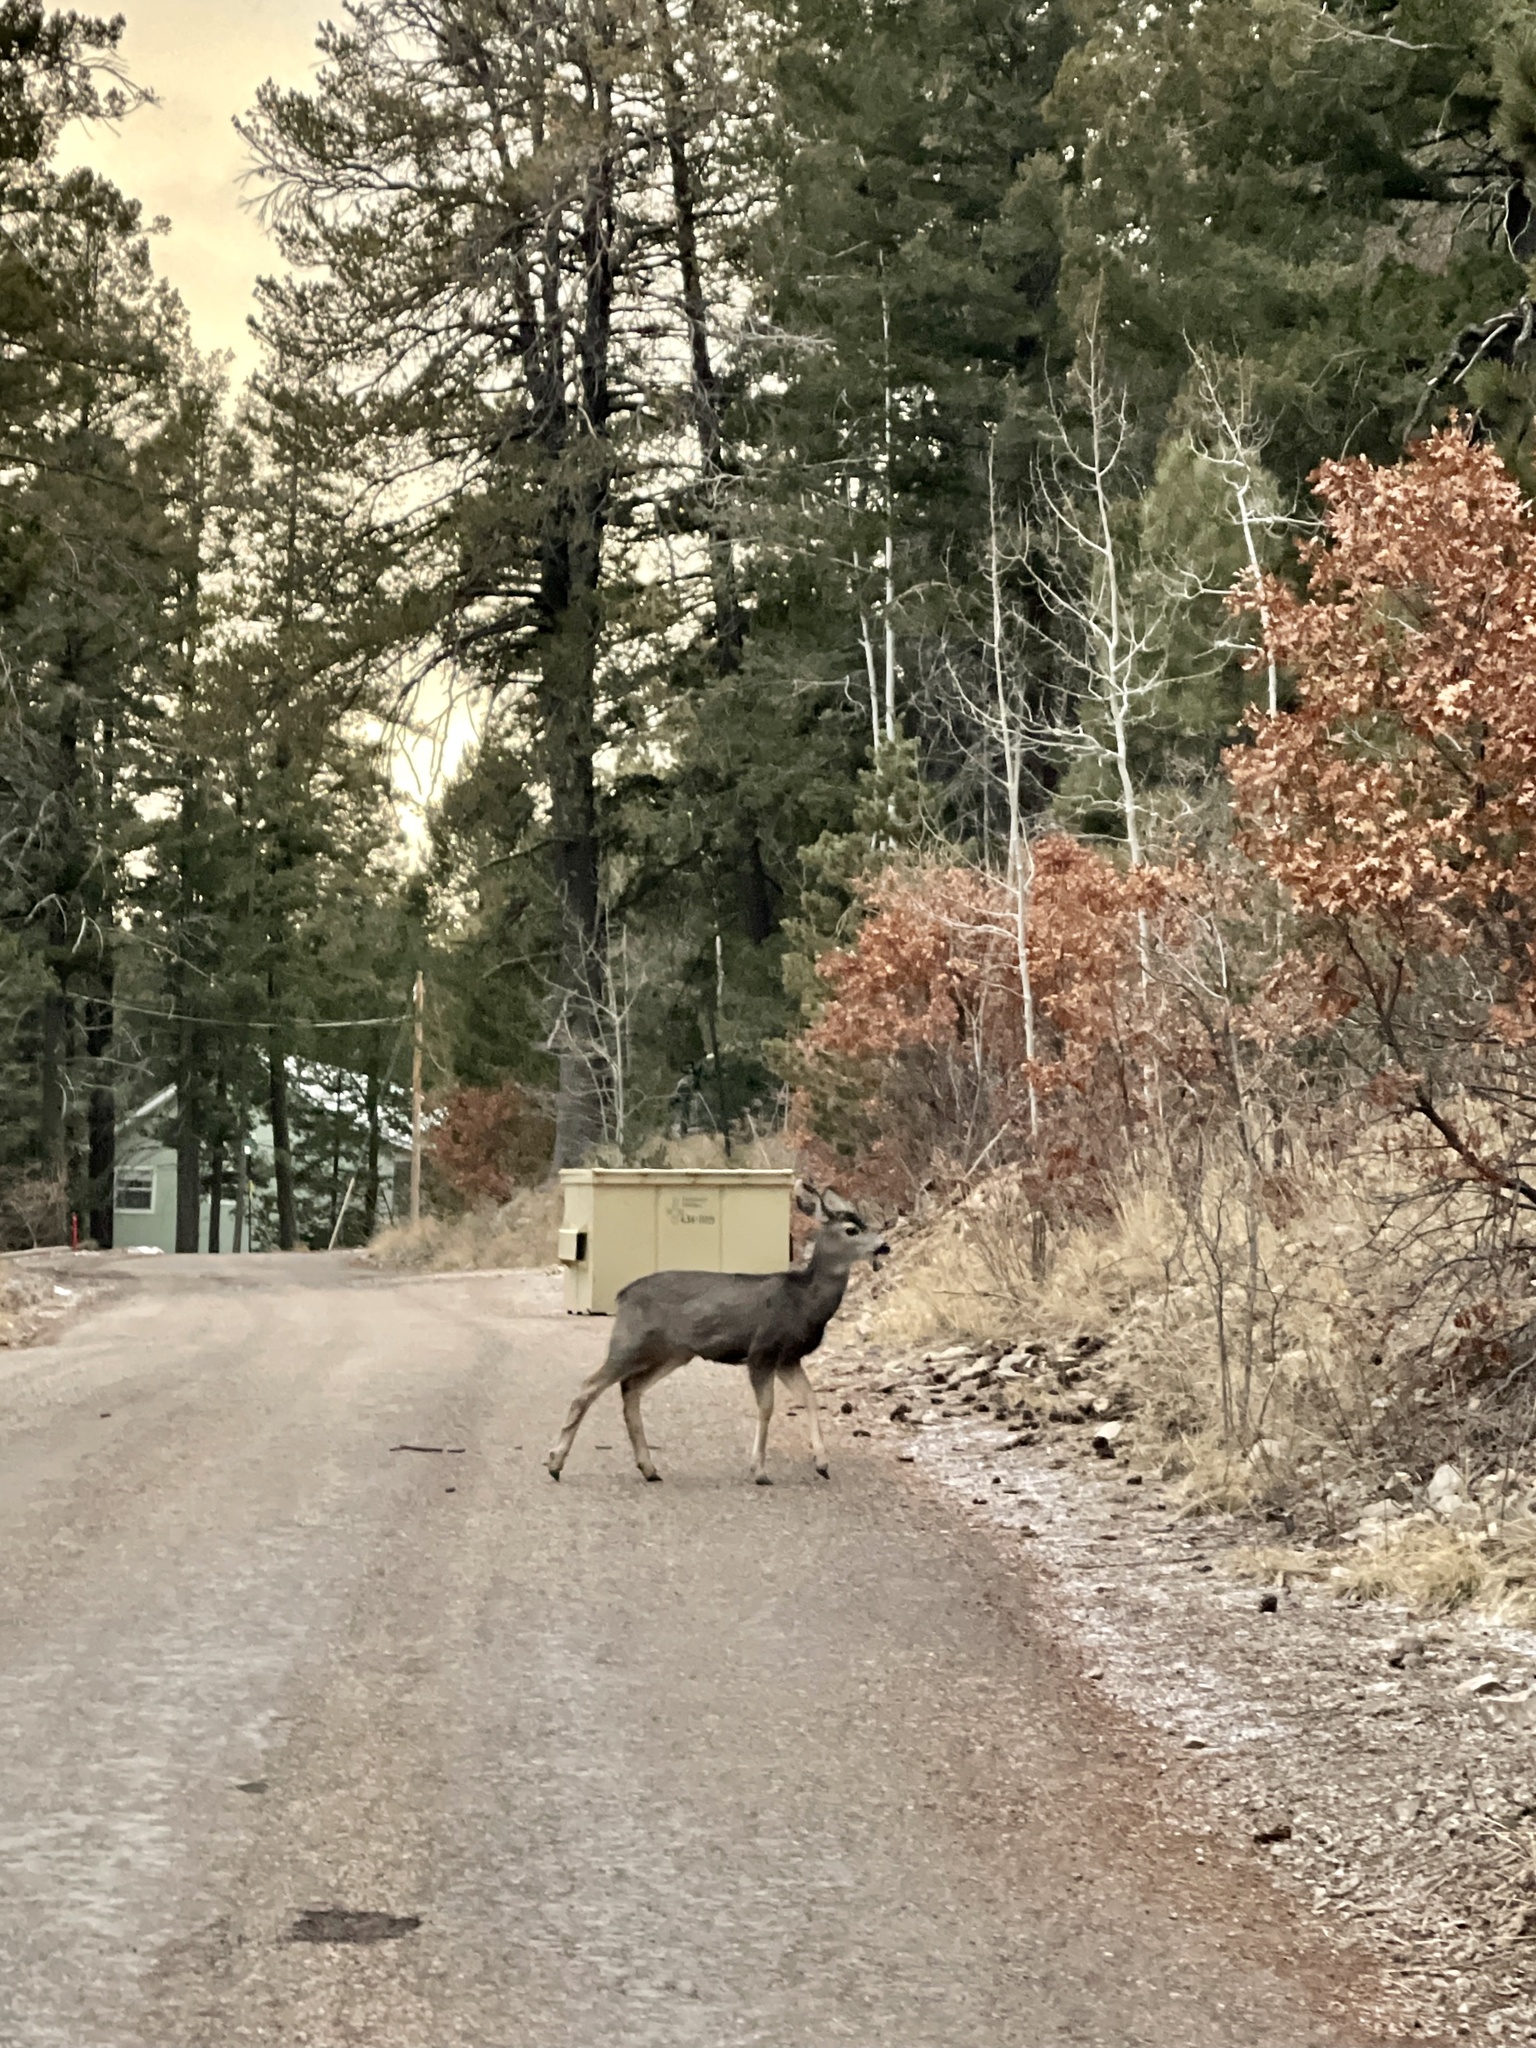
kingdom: Animalia
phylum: Chordata
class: Mammalia
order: Artiodactyla
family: Cervidae
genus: Odocoileus
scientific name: Odocoileus hemionus
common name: Mule deer
